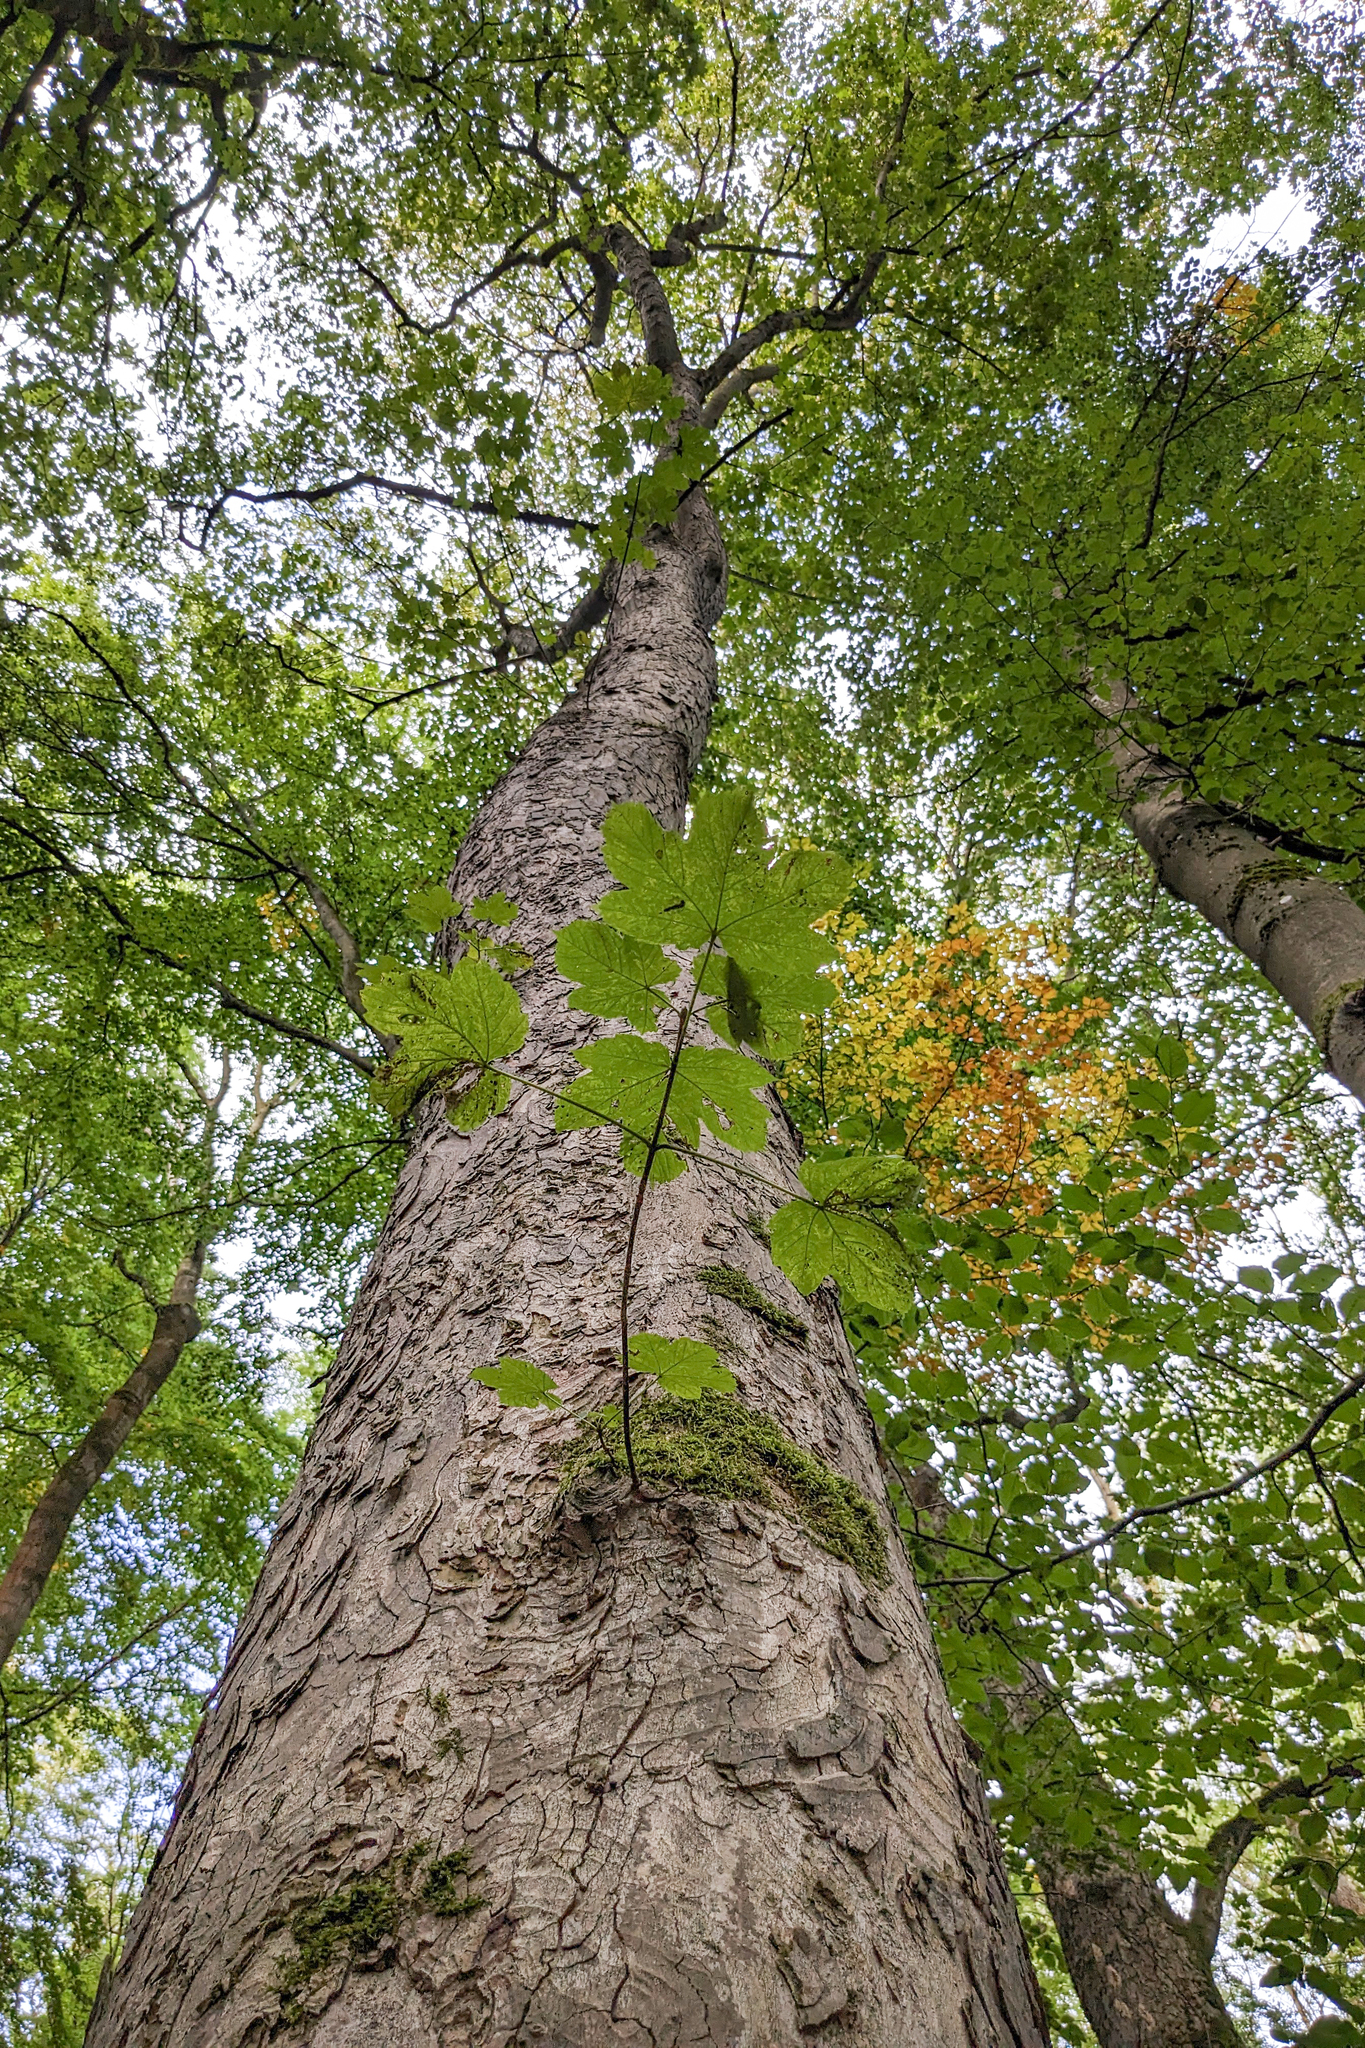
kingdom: Plantae
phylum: Tracheophyta
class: Magnoliopsida
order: Sapindales
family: Sapindaceae
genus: Acer
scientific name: Acer pseudoplatanus
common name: Sycamore
